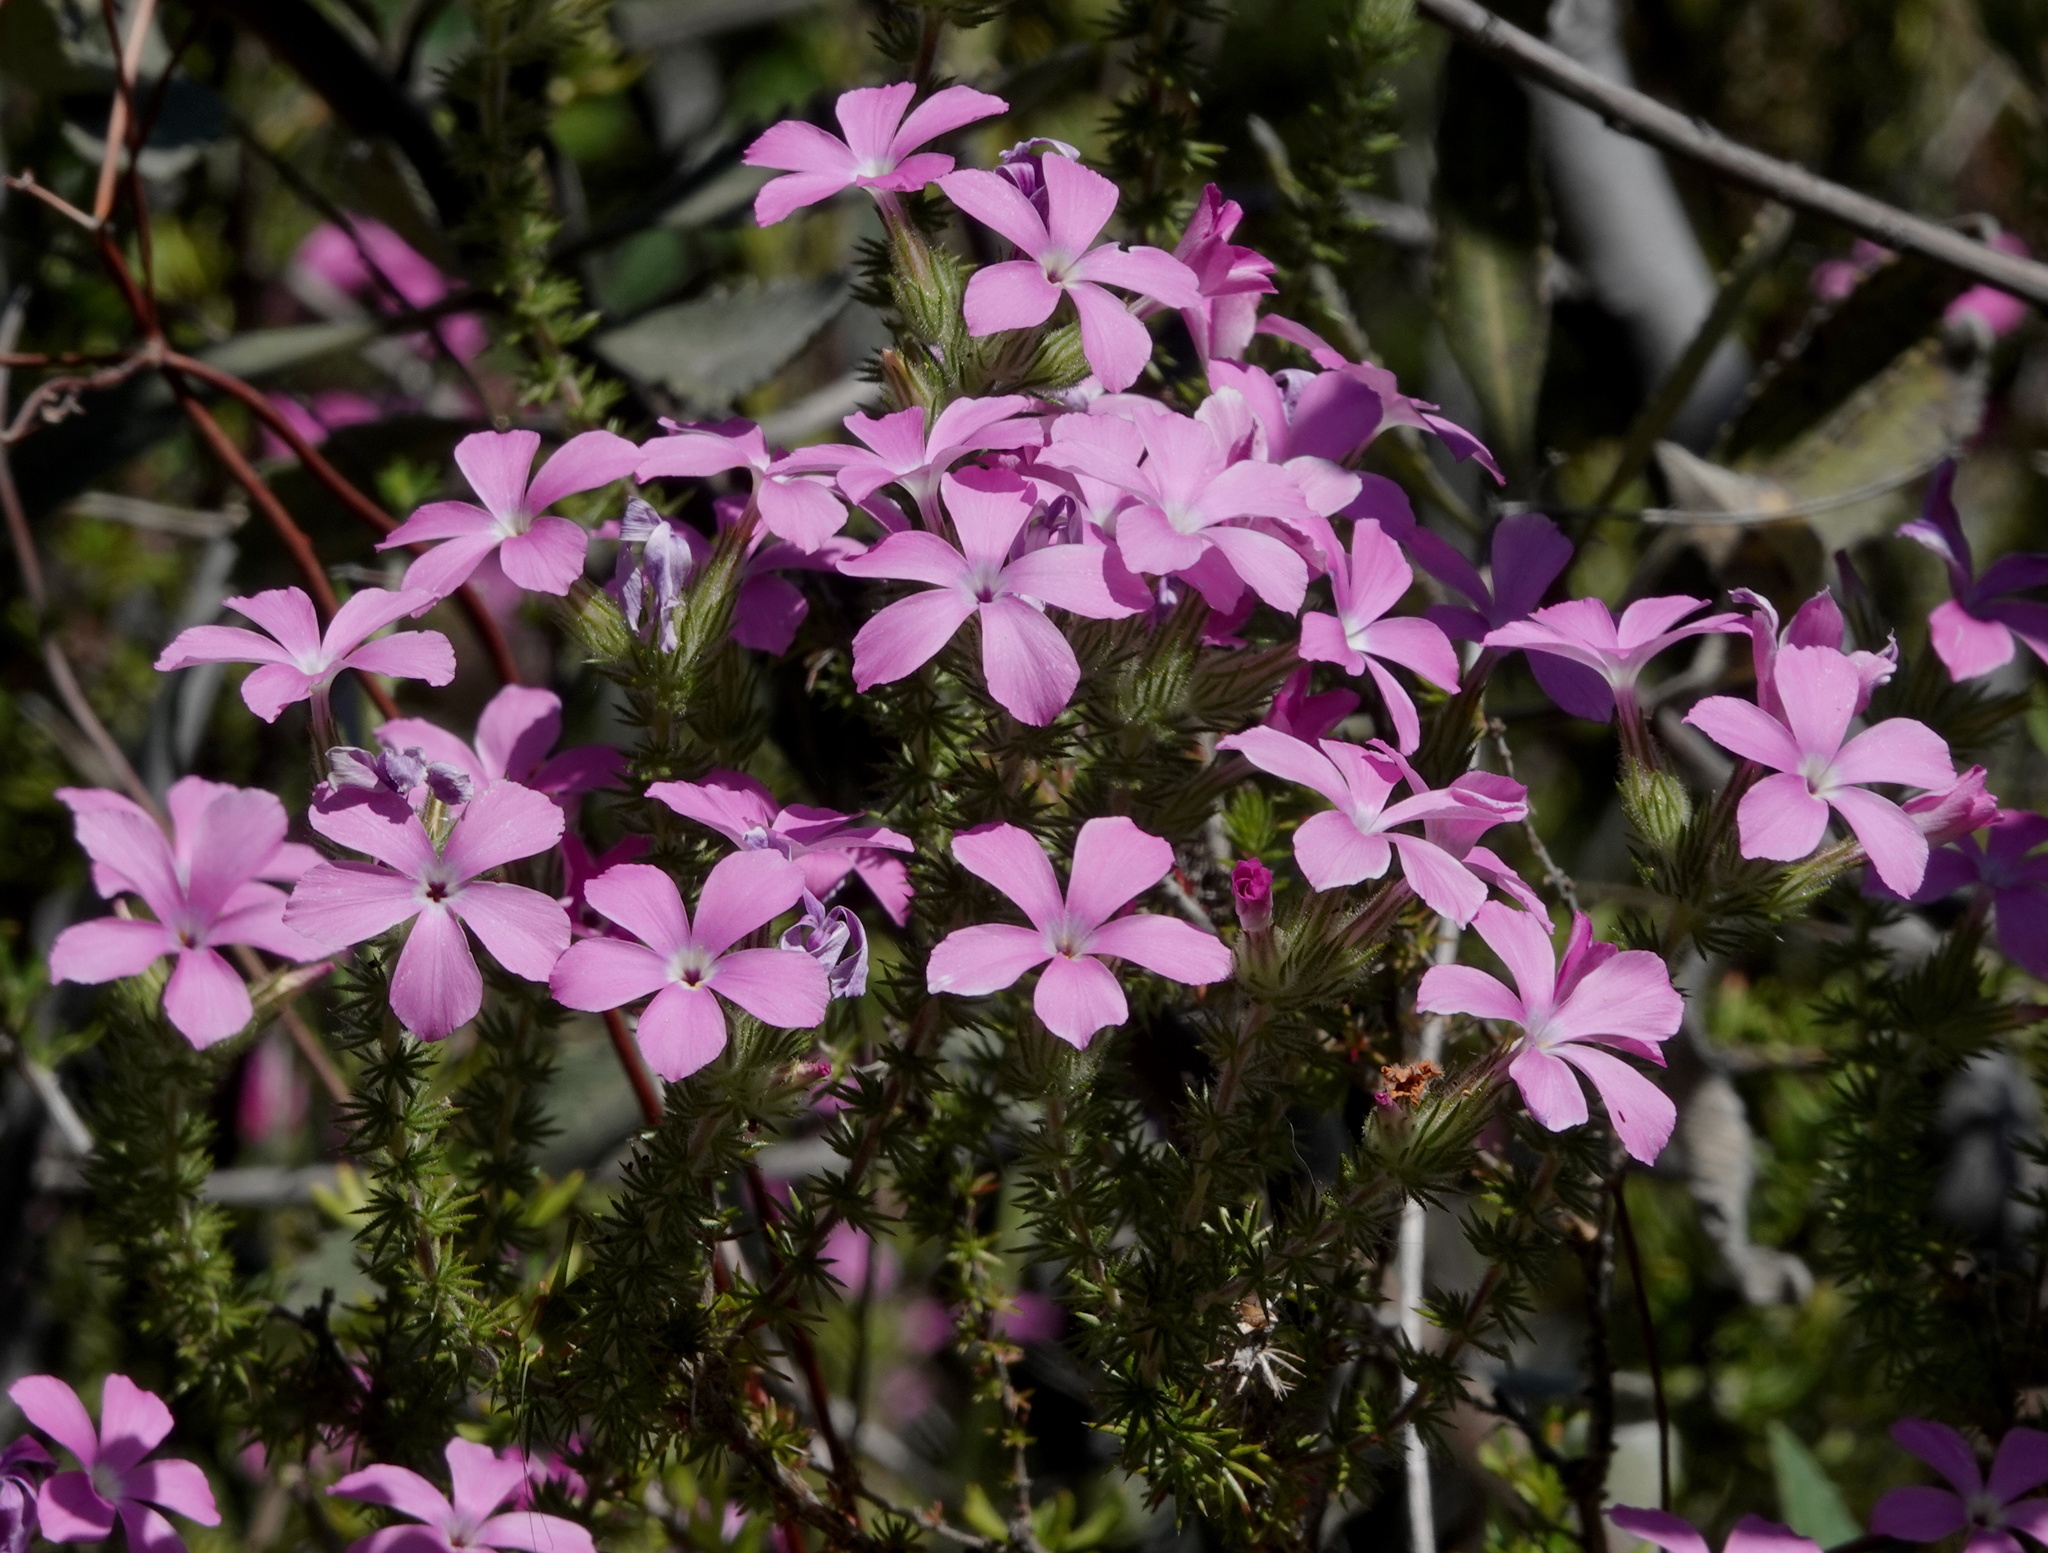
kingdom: Plantae
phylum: Tracheophyta
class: Magnoliopsida
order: Ericales
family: Polemoniaceae
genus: Linanthus
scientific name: Linanthus californicus
